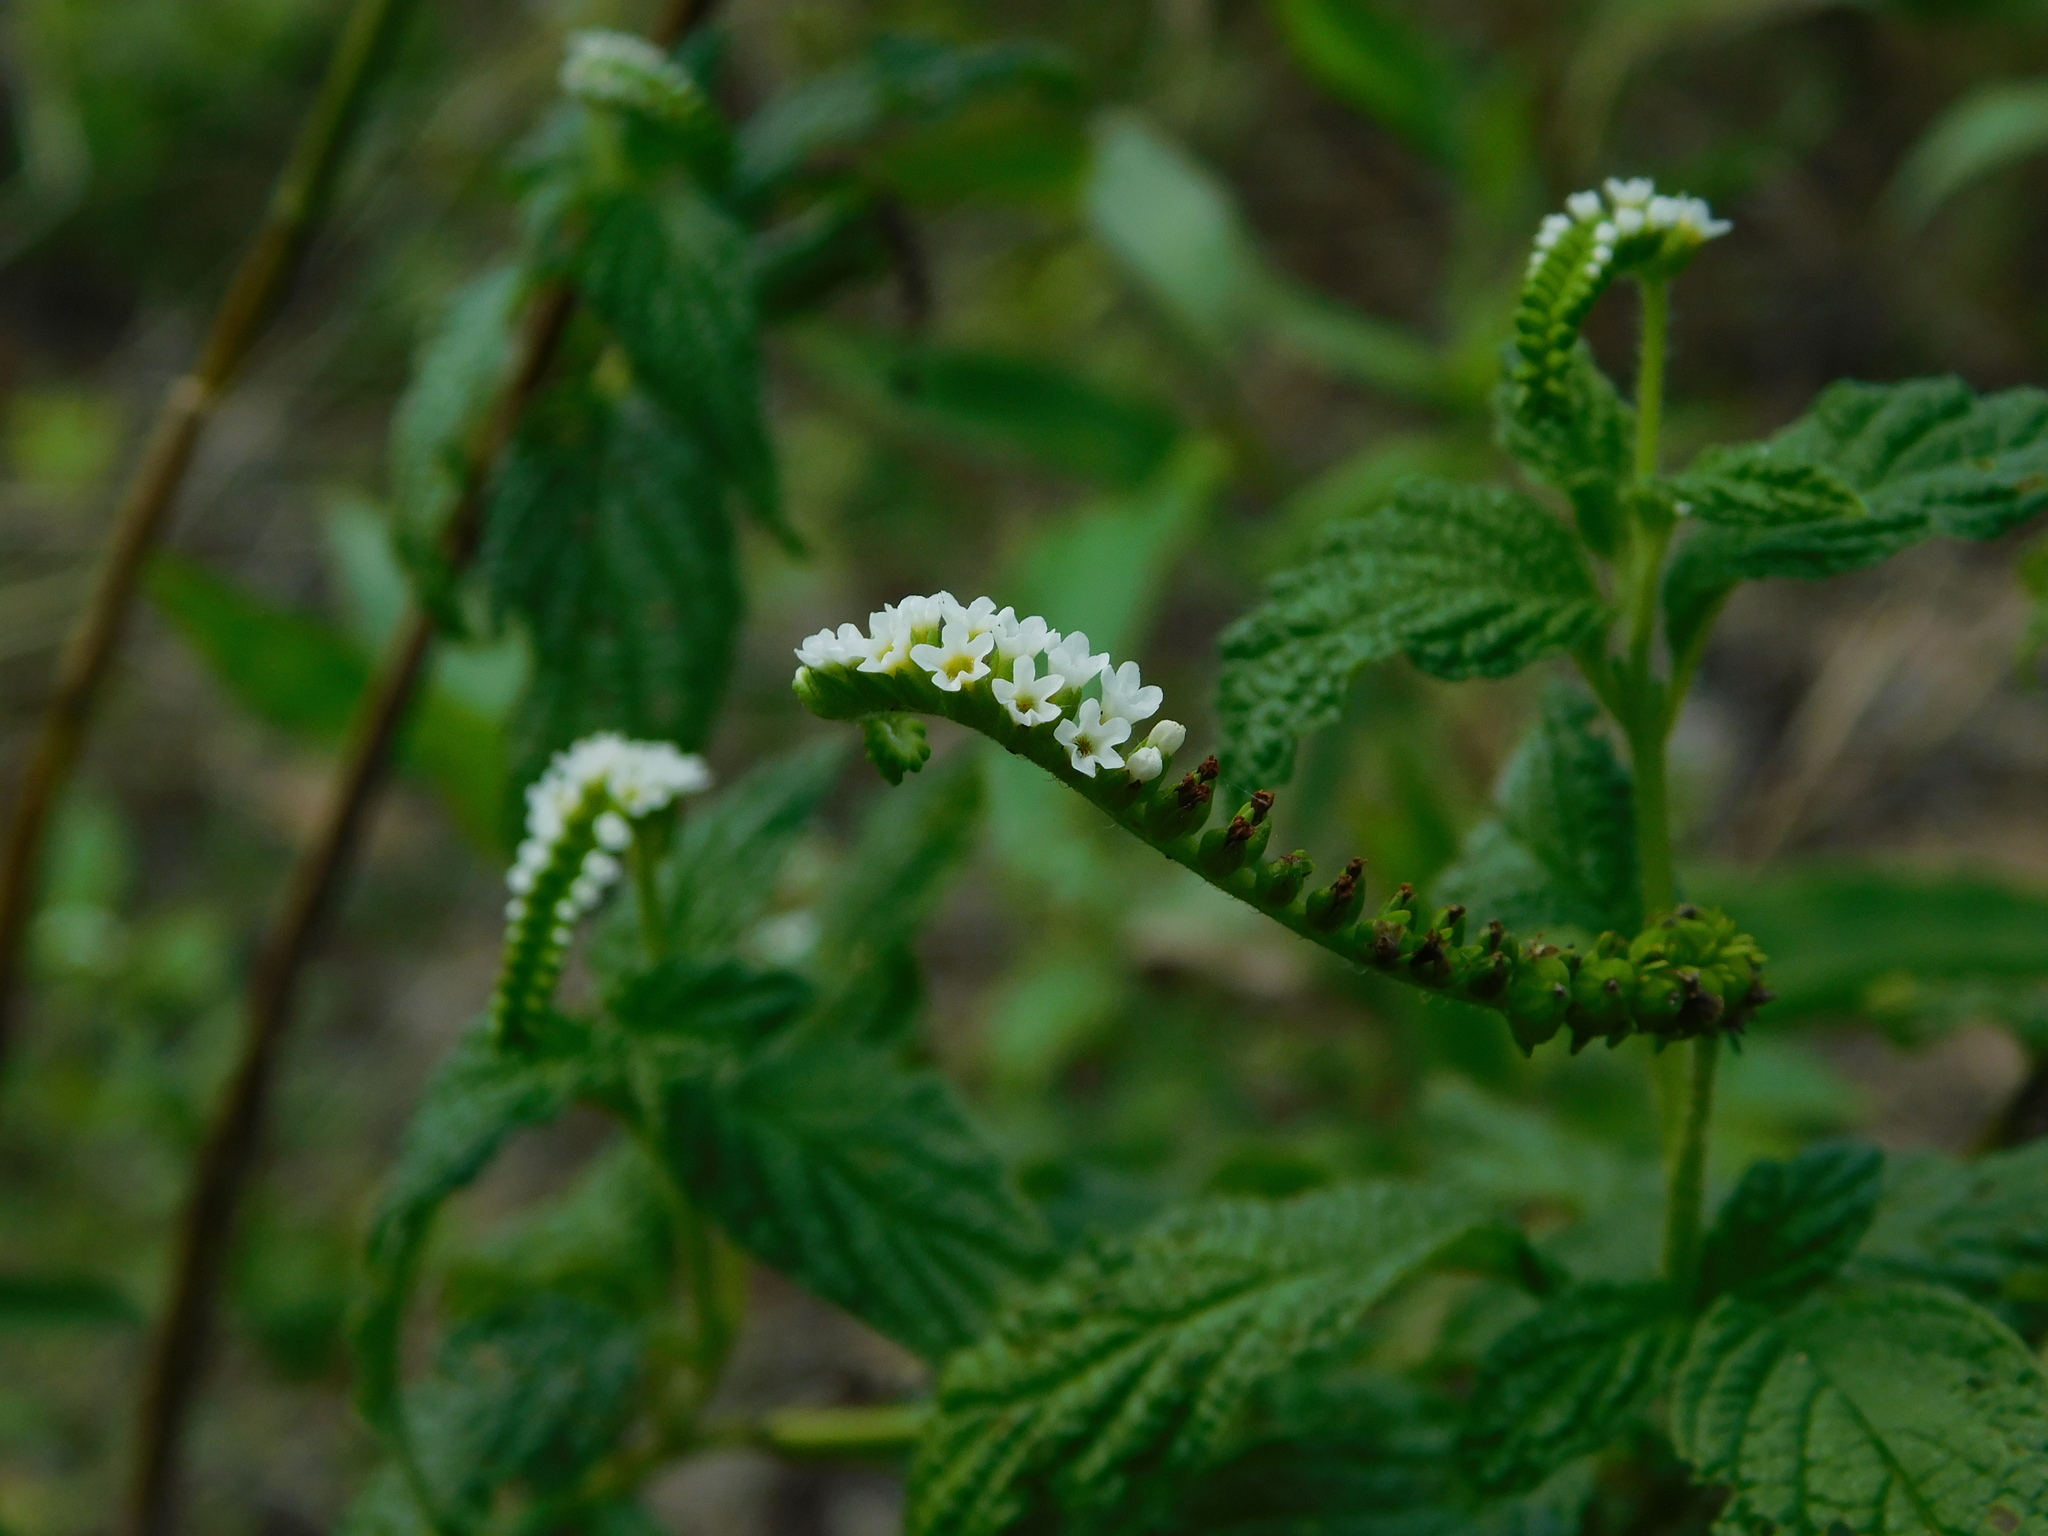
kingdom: Plantae
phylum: Tracheophyta
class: Magnoliopsida
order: Boraginales
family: Heliotropiaceae
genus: Heliotropium
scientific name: Heliotropium angiospermum
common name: Eye bright
